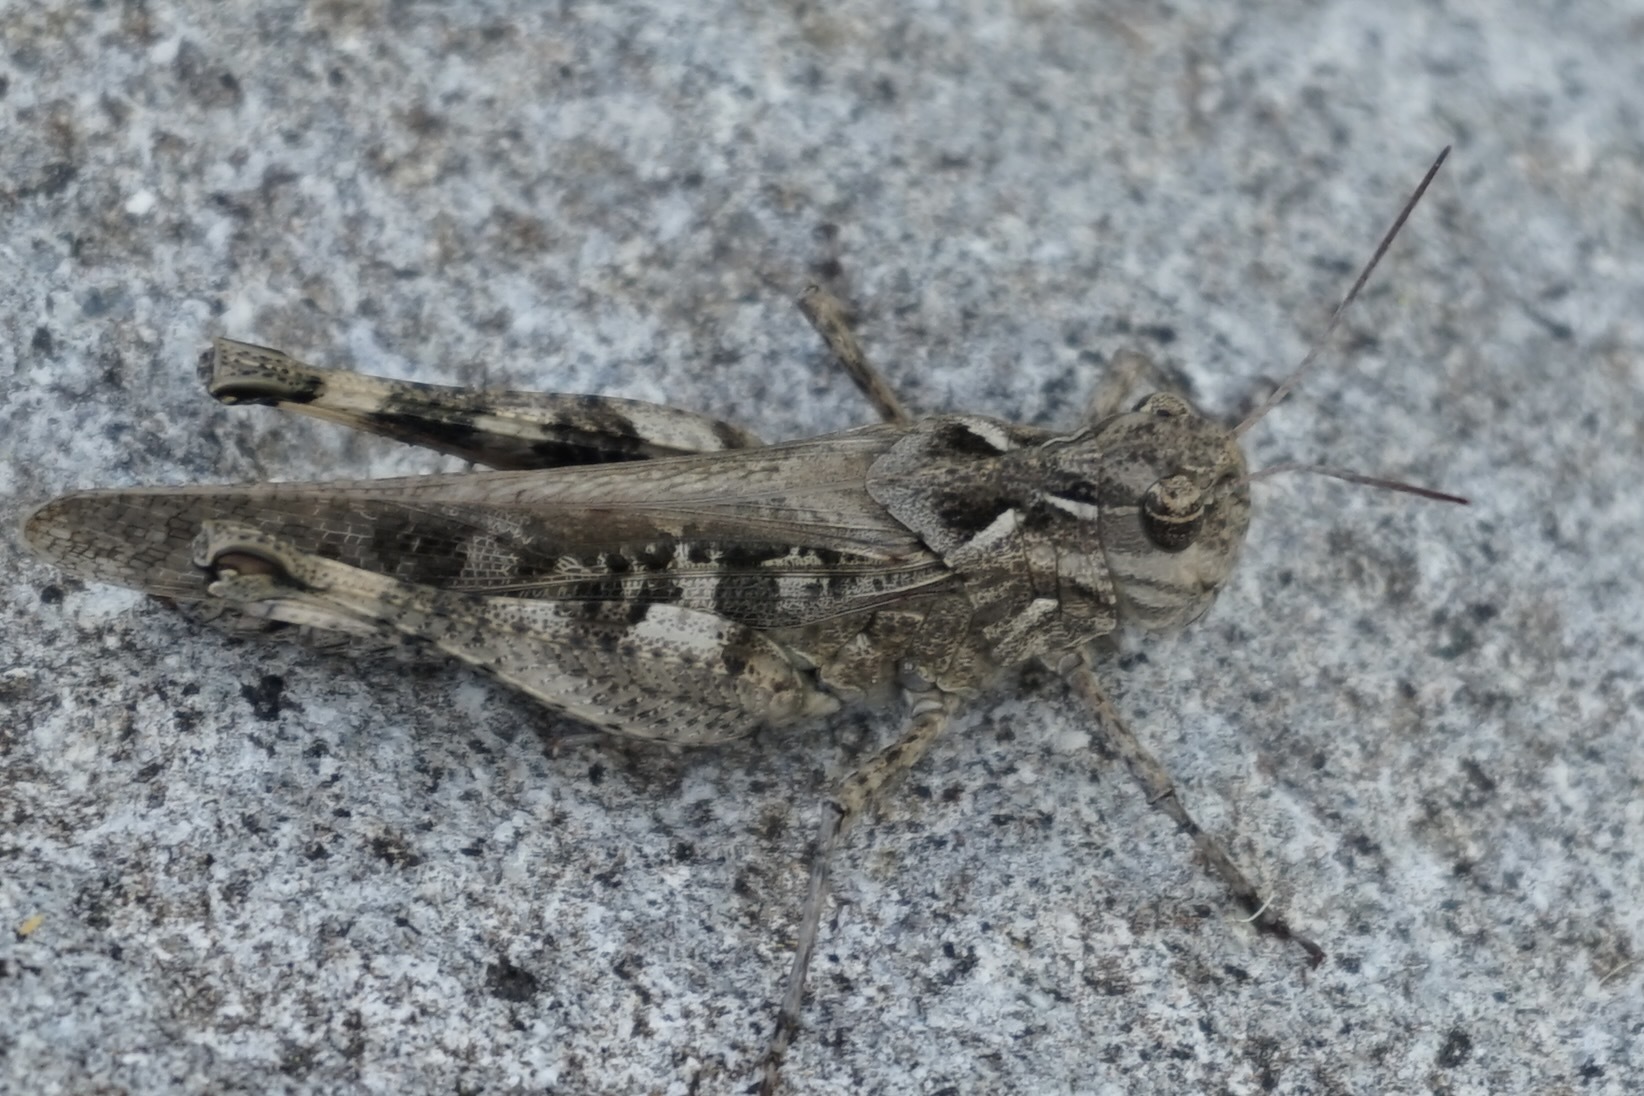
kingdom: Animalia
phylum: Arthropoda
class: Insecta
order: Orthoptera
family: Acrididae
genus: Oedaleus
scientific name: Oedaleus infernalis
